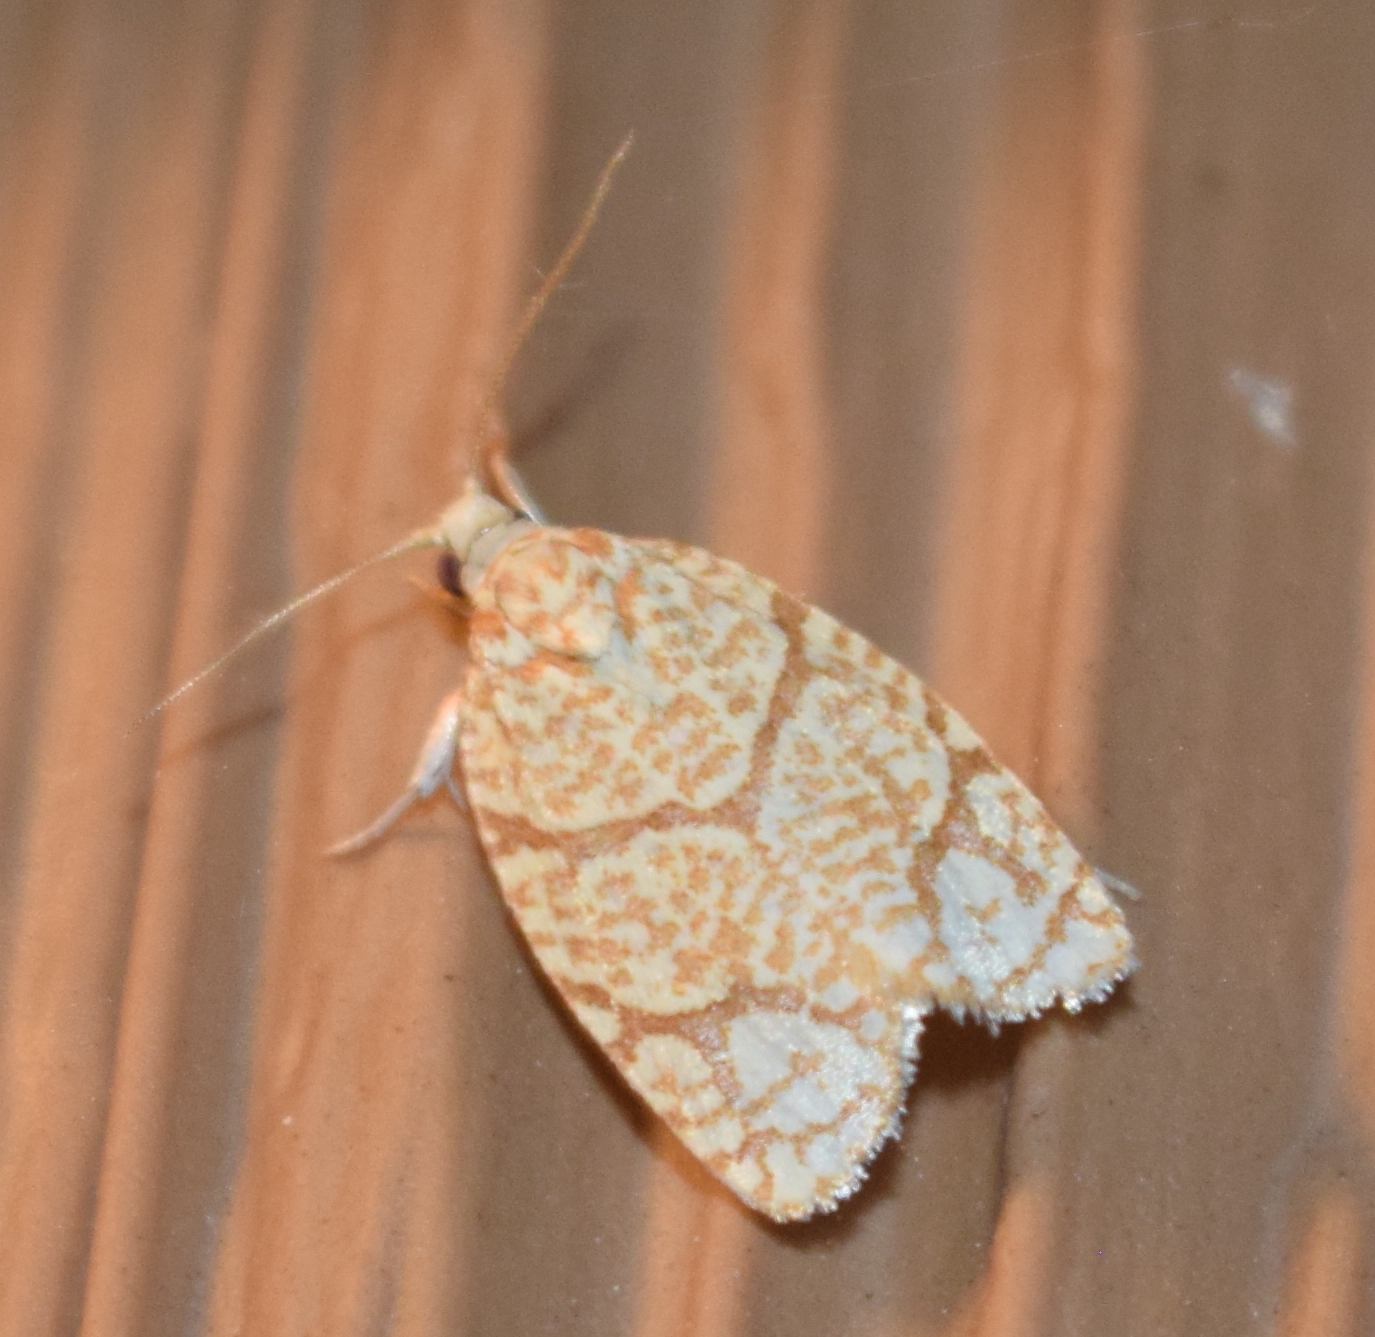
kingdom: Animalia
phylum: Arthropoda
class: Insecta
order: Lepidoptera
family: Tortricidae
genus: Argyrotaenia
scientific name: Argyrotaenia quercifoliana
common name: Yellow-winged oak leafroller moth
